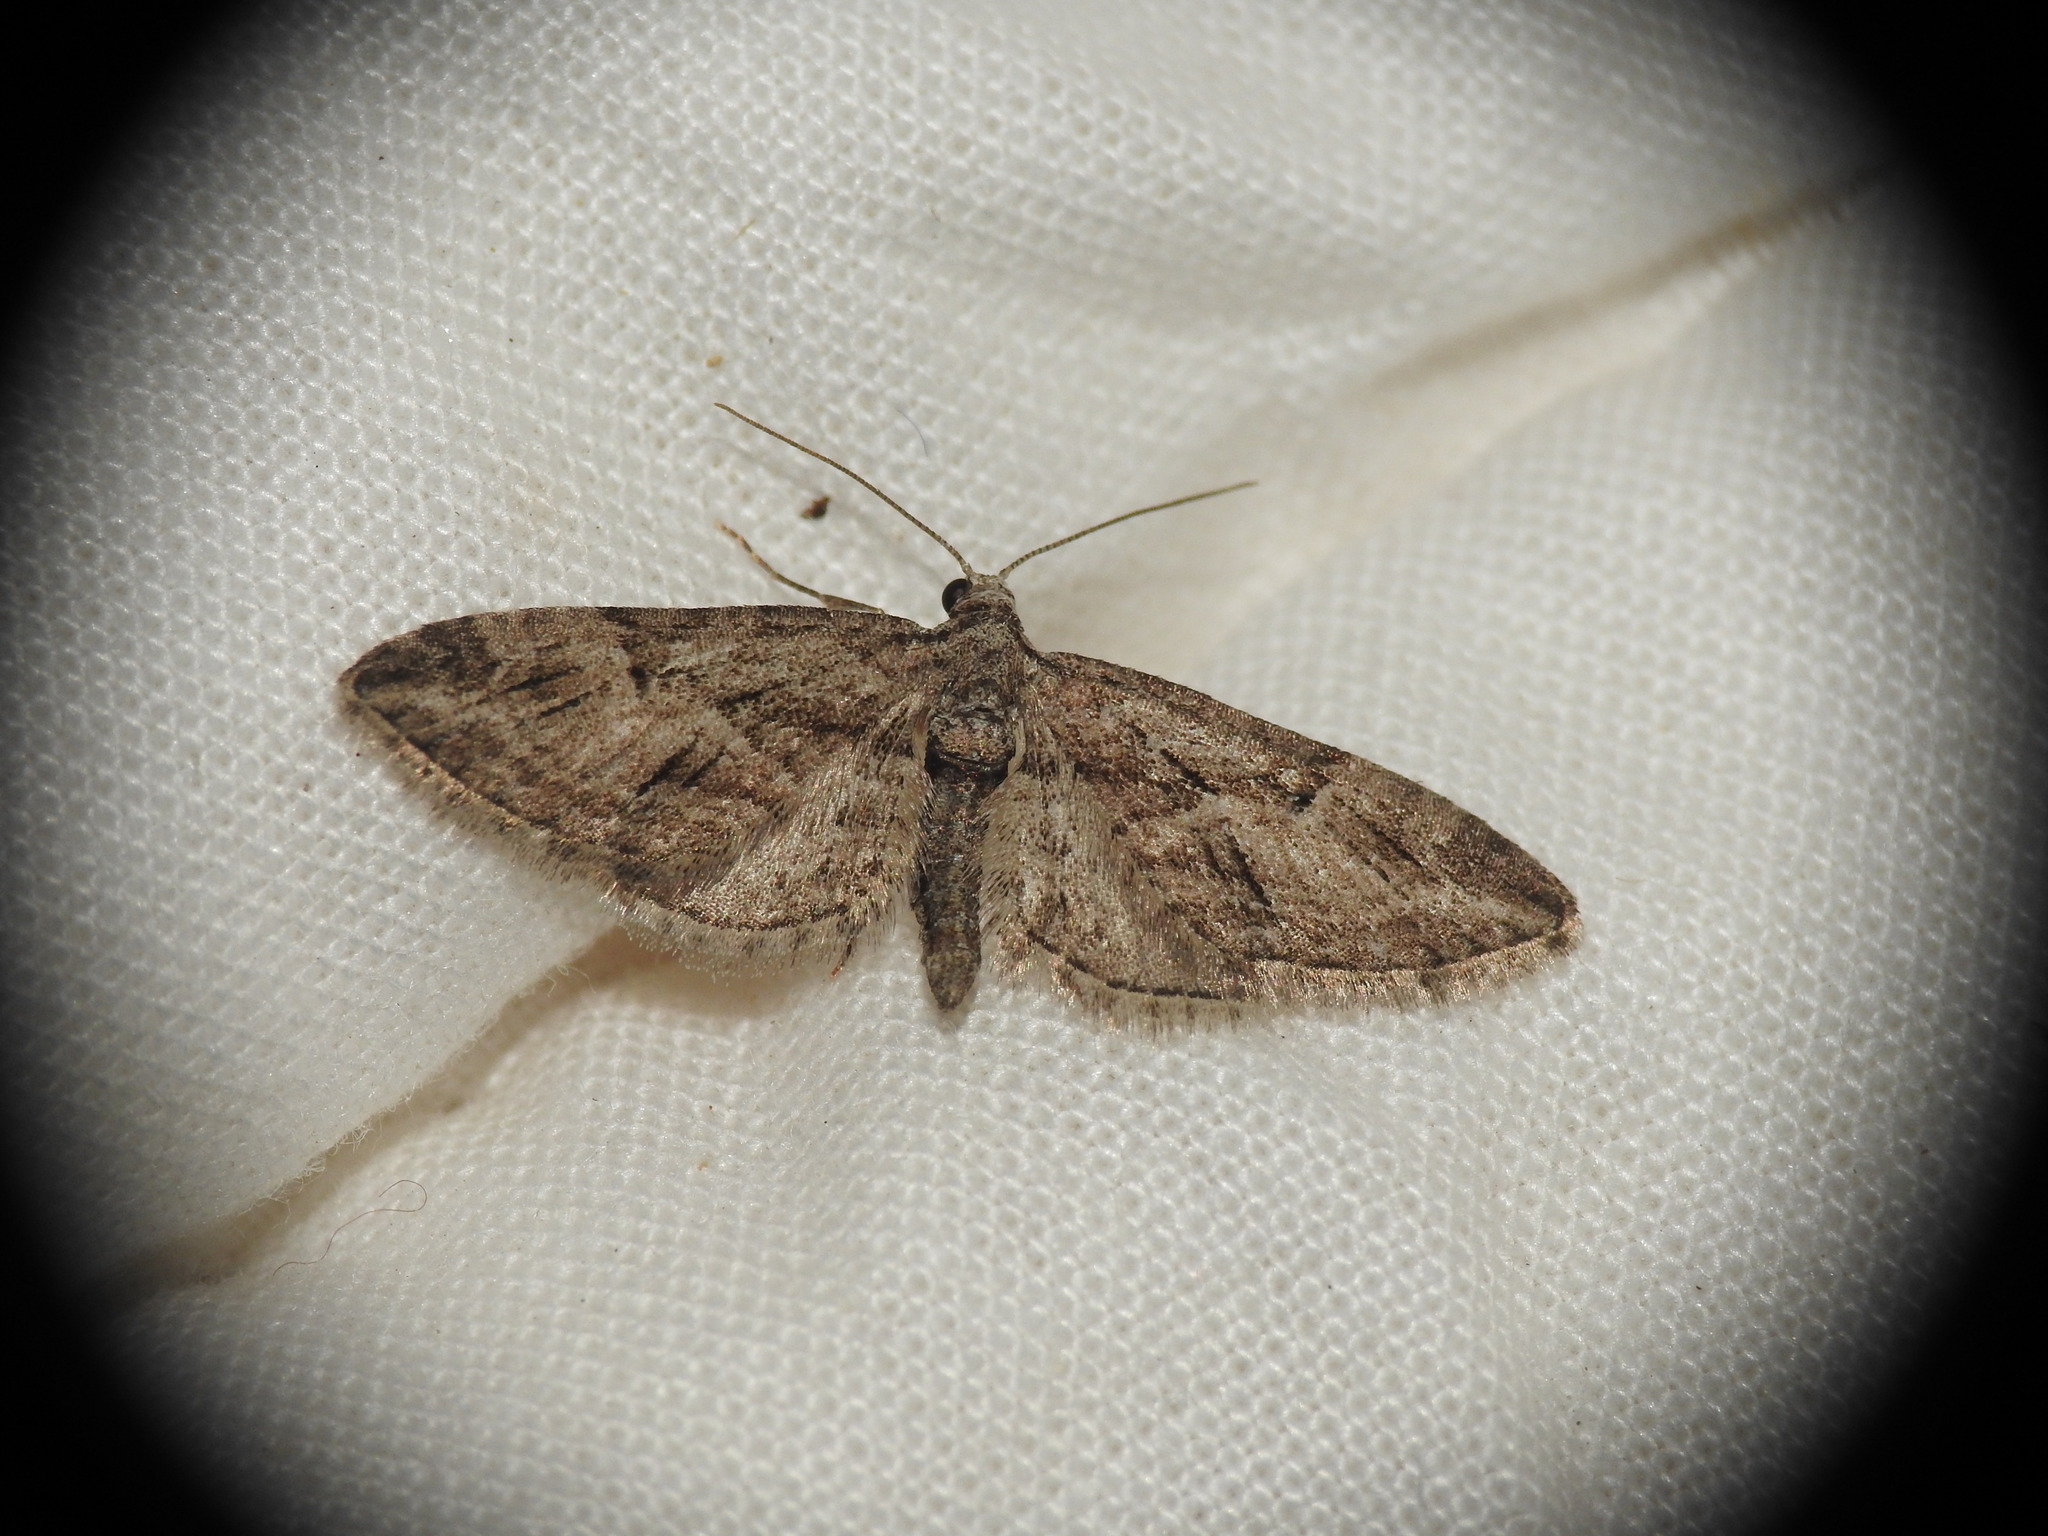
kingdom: Animalia
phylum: Arthropoda
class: Insecta
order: Lepidoptera
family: Geometridae
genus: Eupithecia
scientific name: Eupithecia oxycedrata
